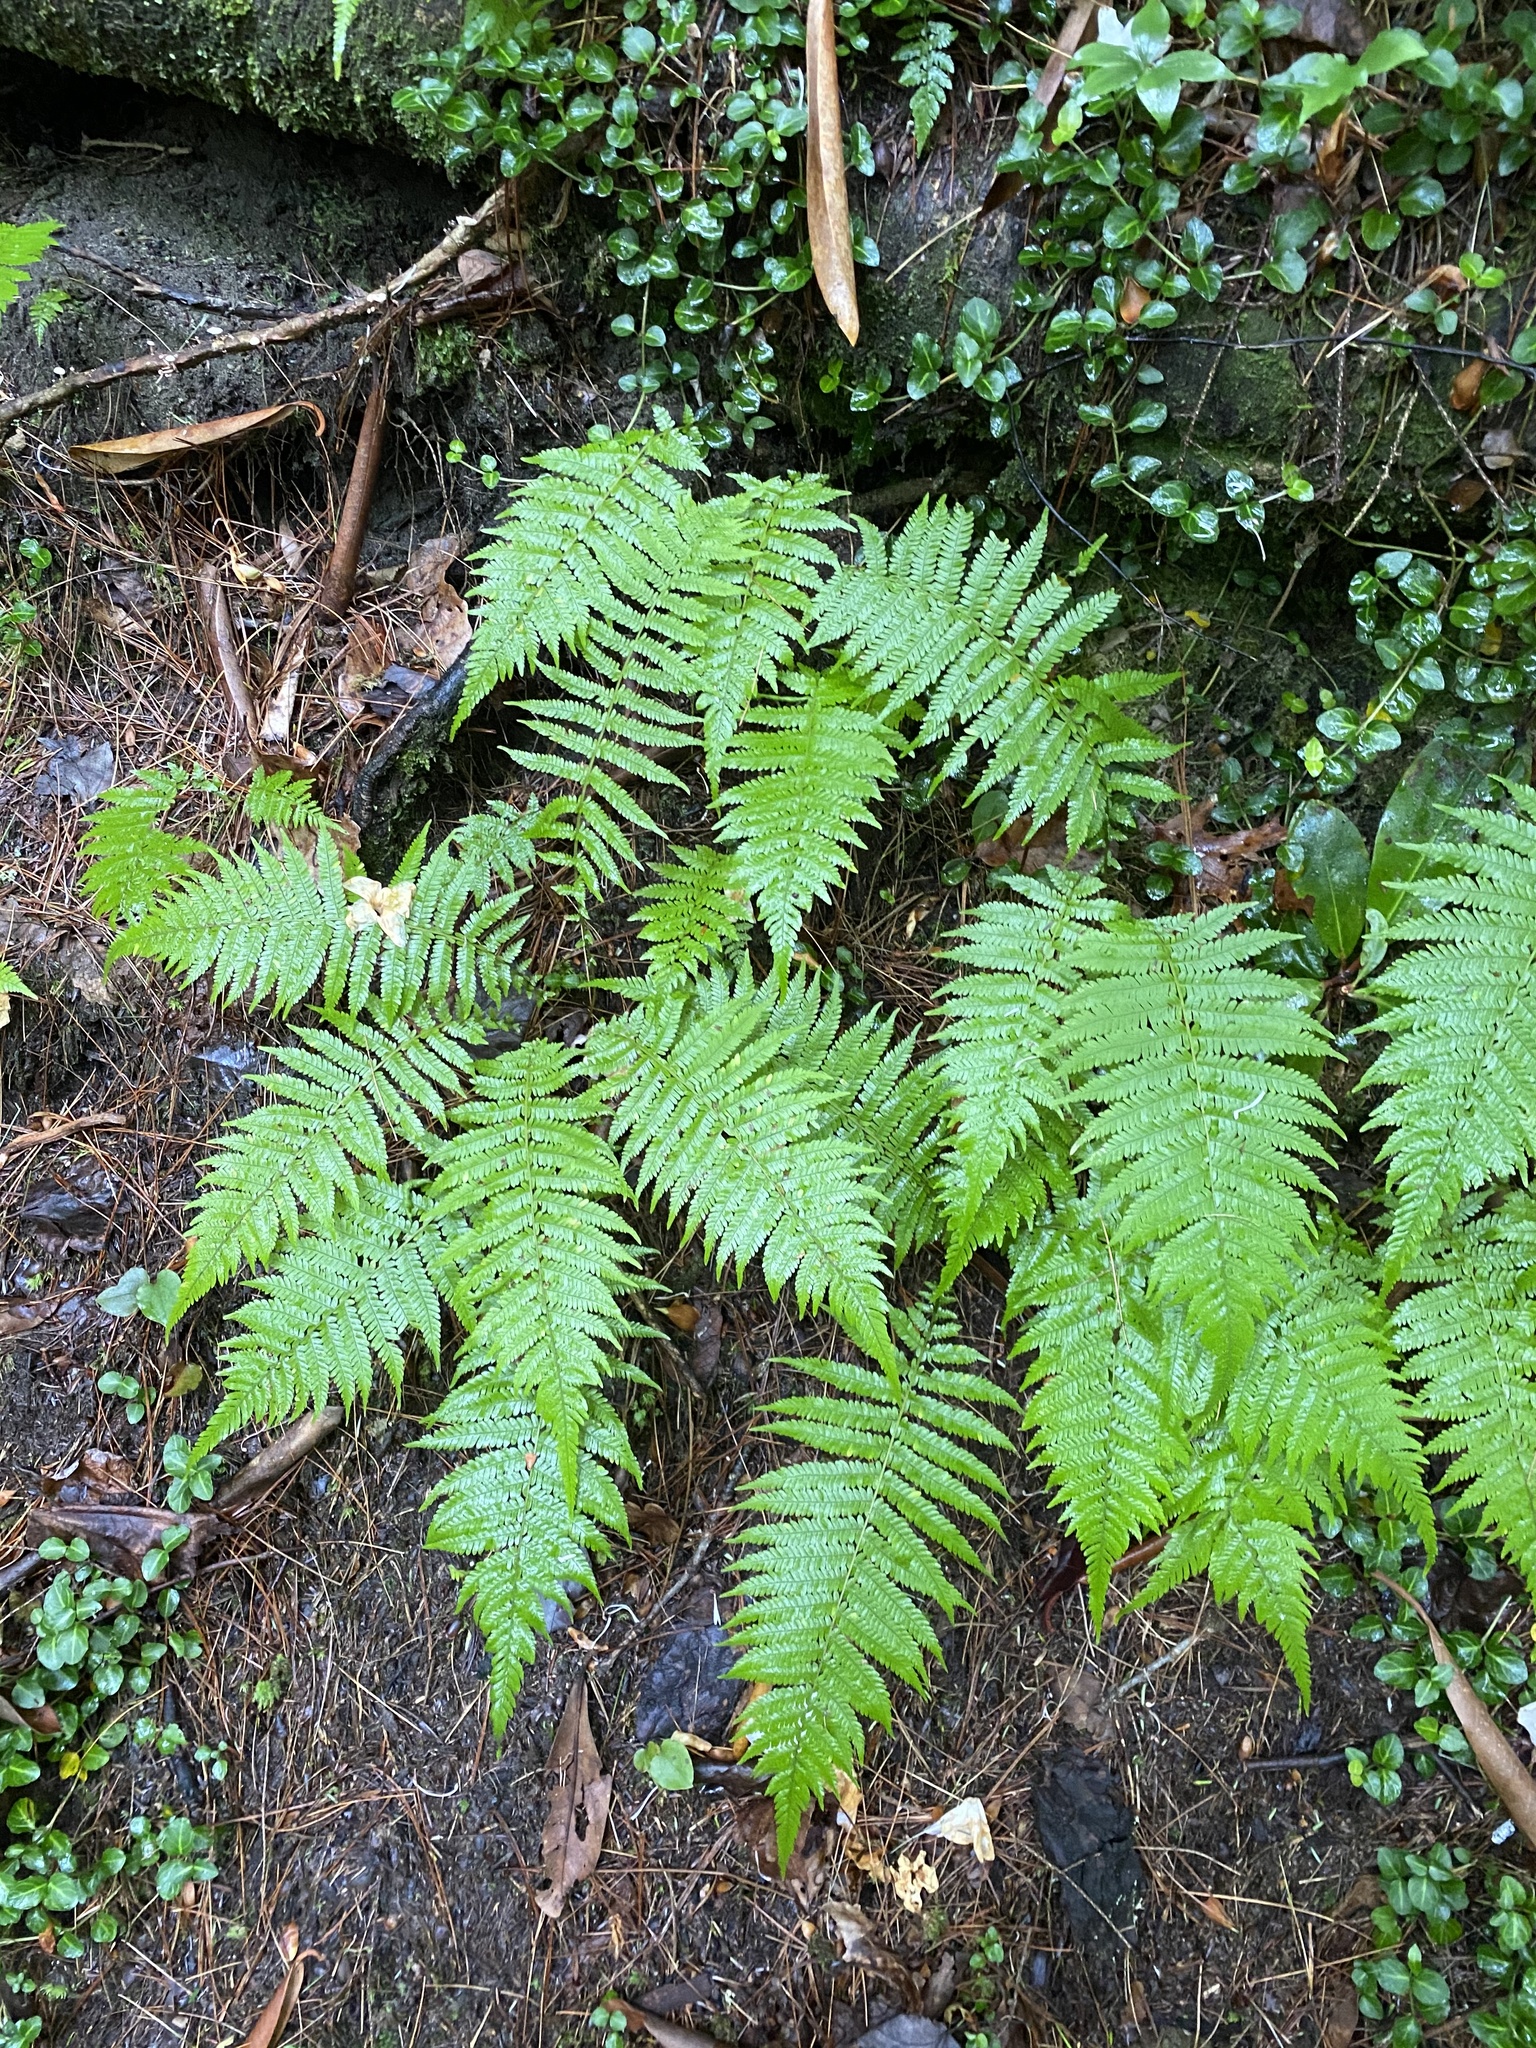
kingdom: Plantae
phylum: Tracheophyta
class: Polypodiopsida
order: Polypodiales
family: Thelypteridaceae
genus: Amauropelta
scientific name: Amauropelta noveboracensis
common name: New york fern
